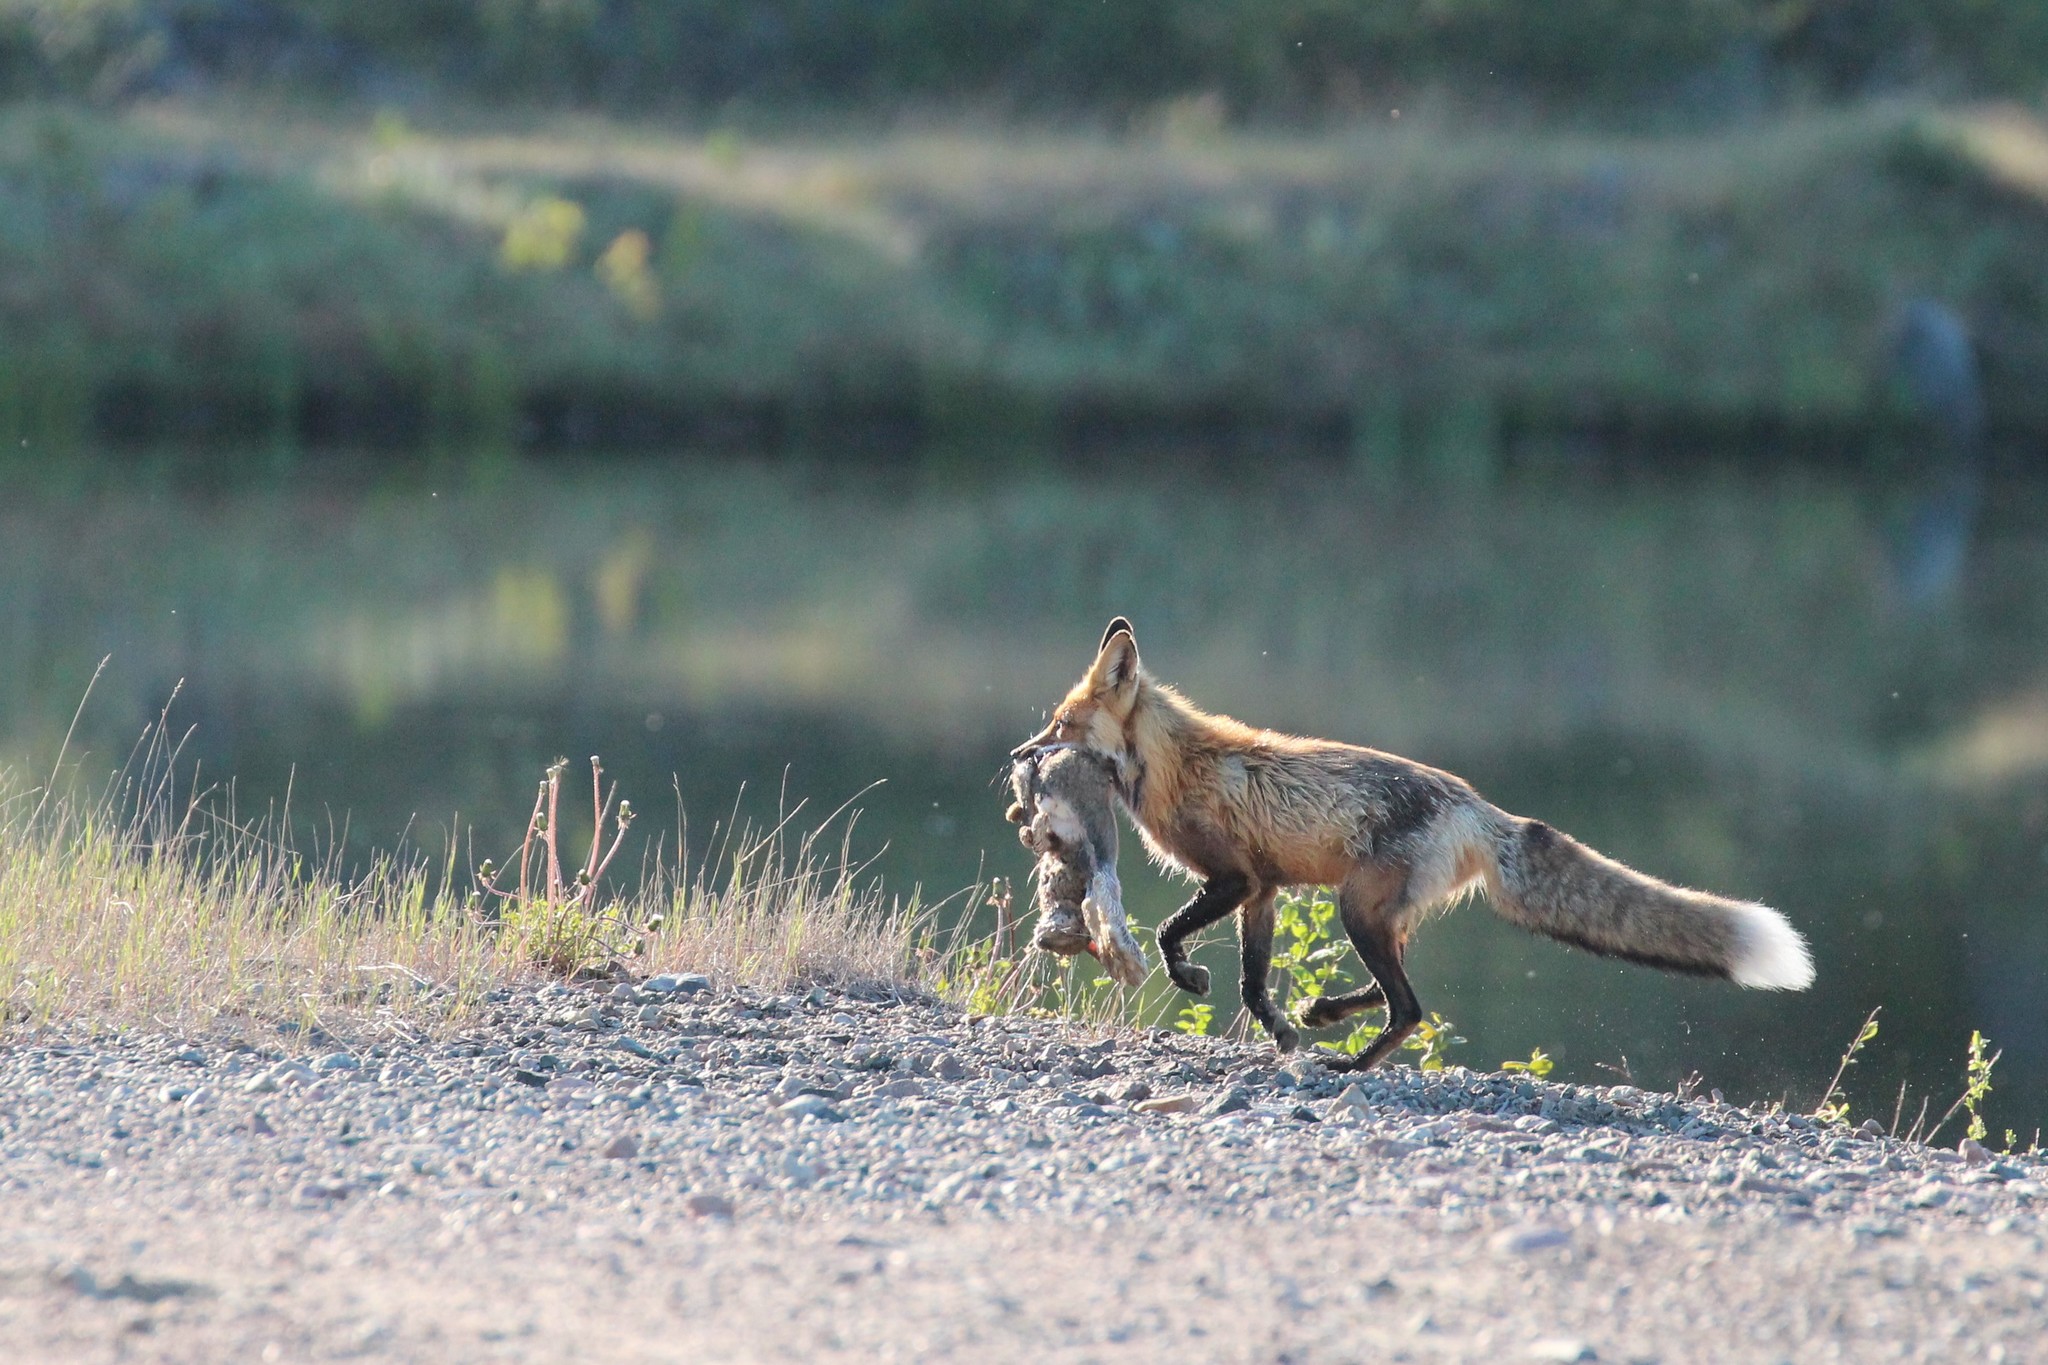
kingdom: Animalia
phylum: Chordata
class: Mammalia
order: Carnivora
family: Canidae
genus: Vulpes
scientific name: Vulpes vulpes
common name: Red fox
